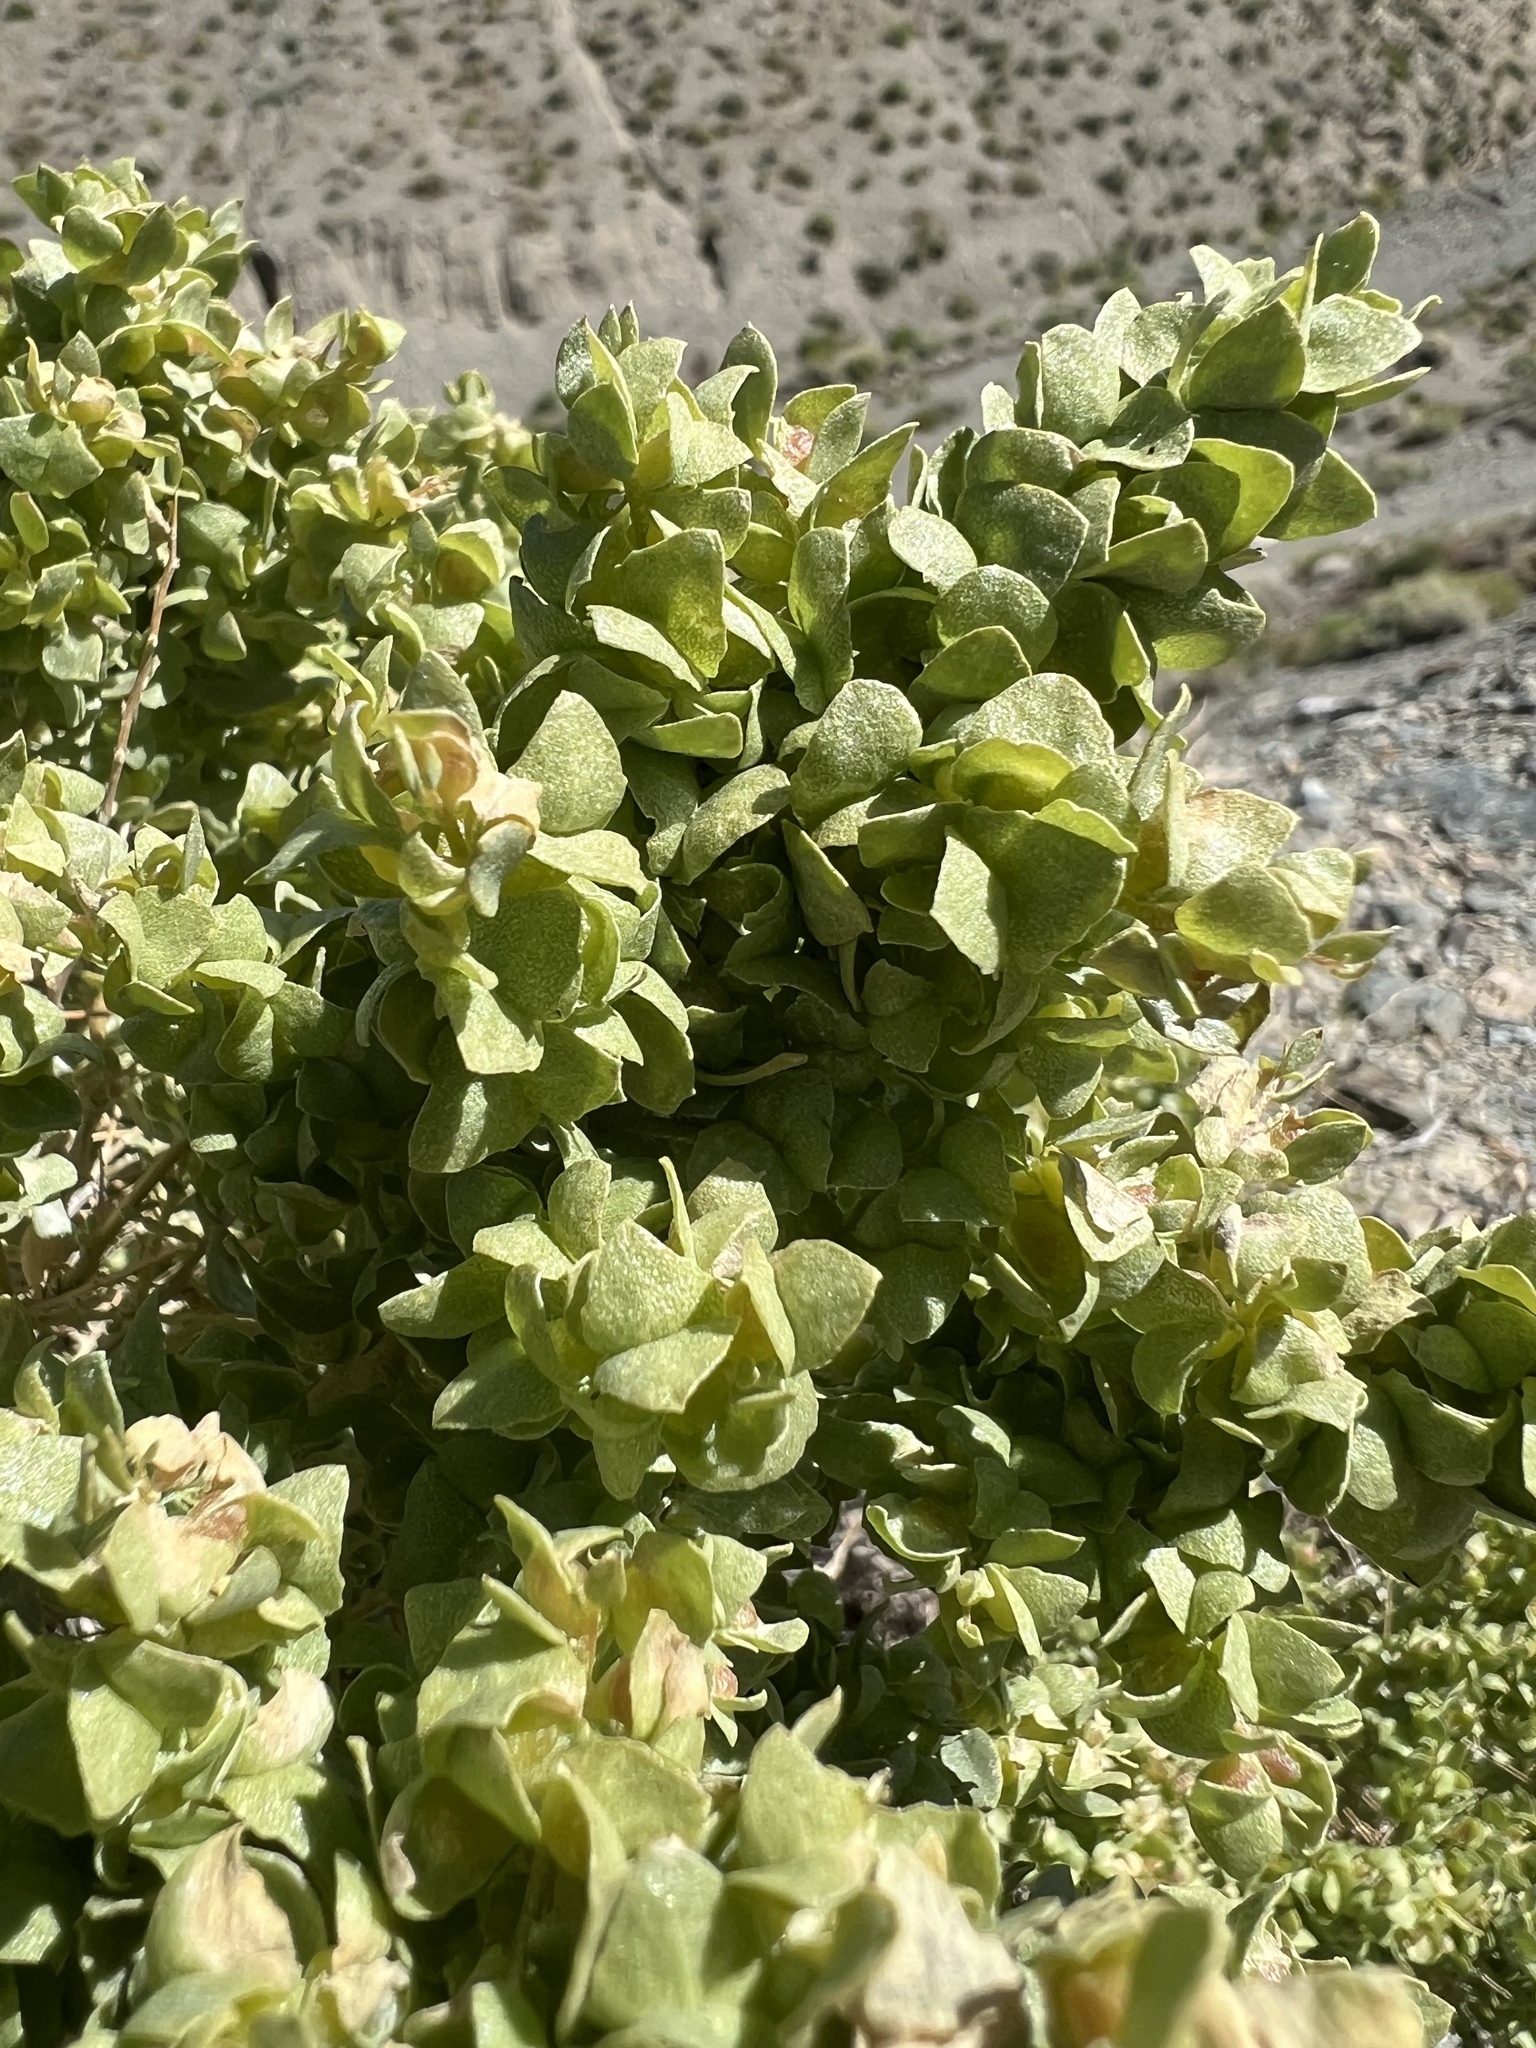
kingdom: Plantae
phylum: Tracheophyta
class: Magnoliopsida
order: Caryophyllales
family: Amaranthaceae
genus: Atriplex
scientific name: Atriplex confertifolia
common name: Shadscale
